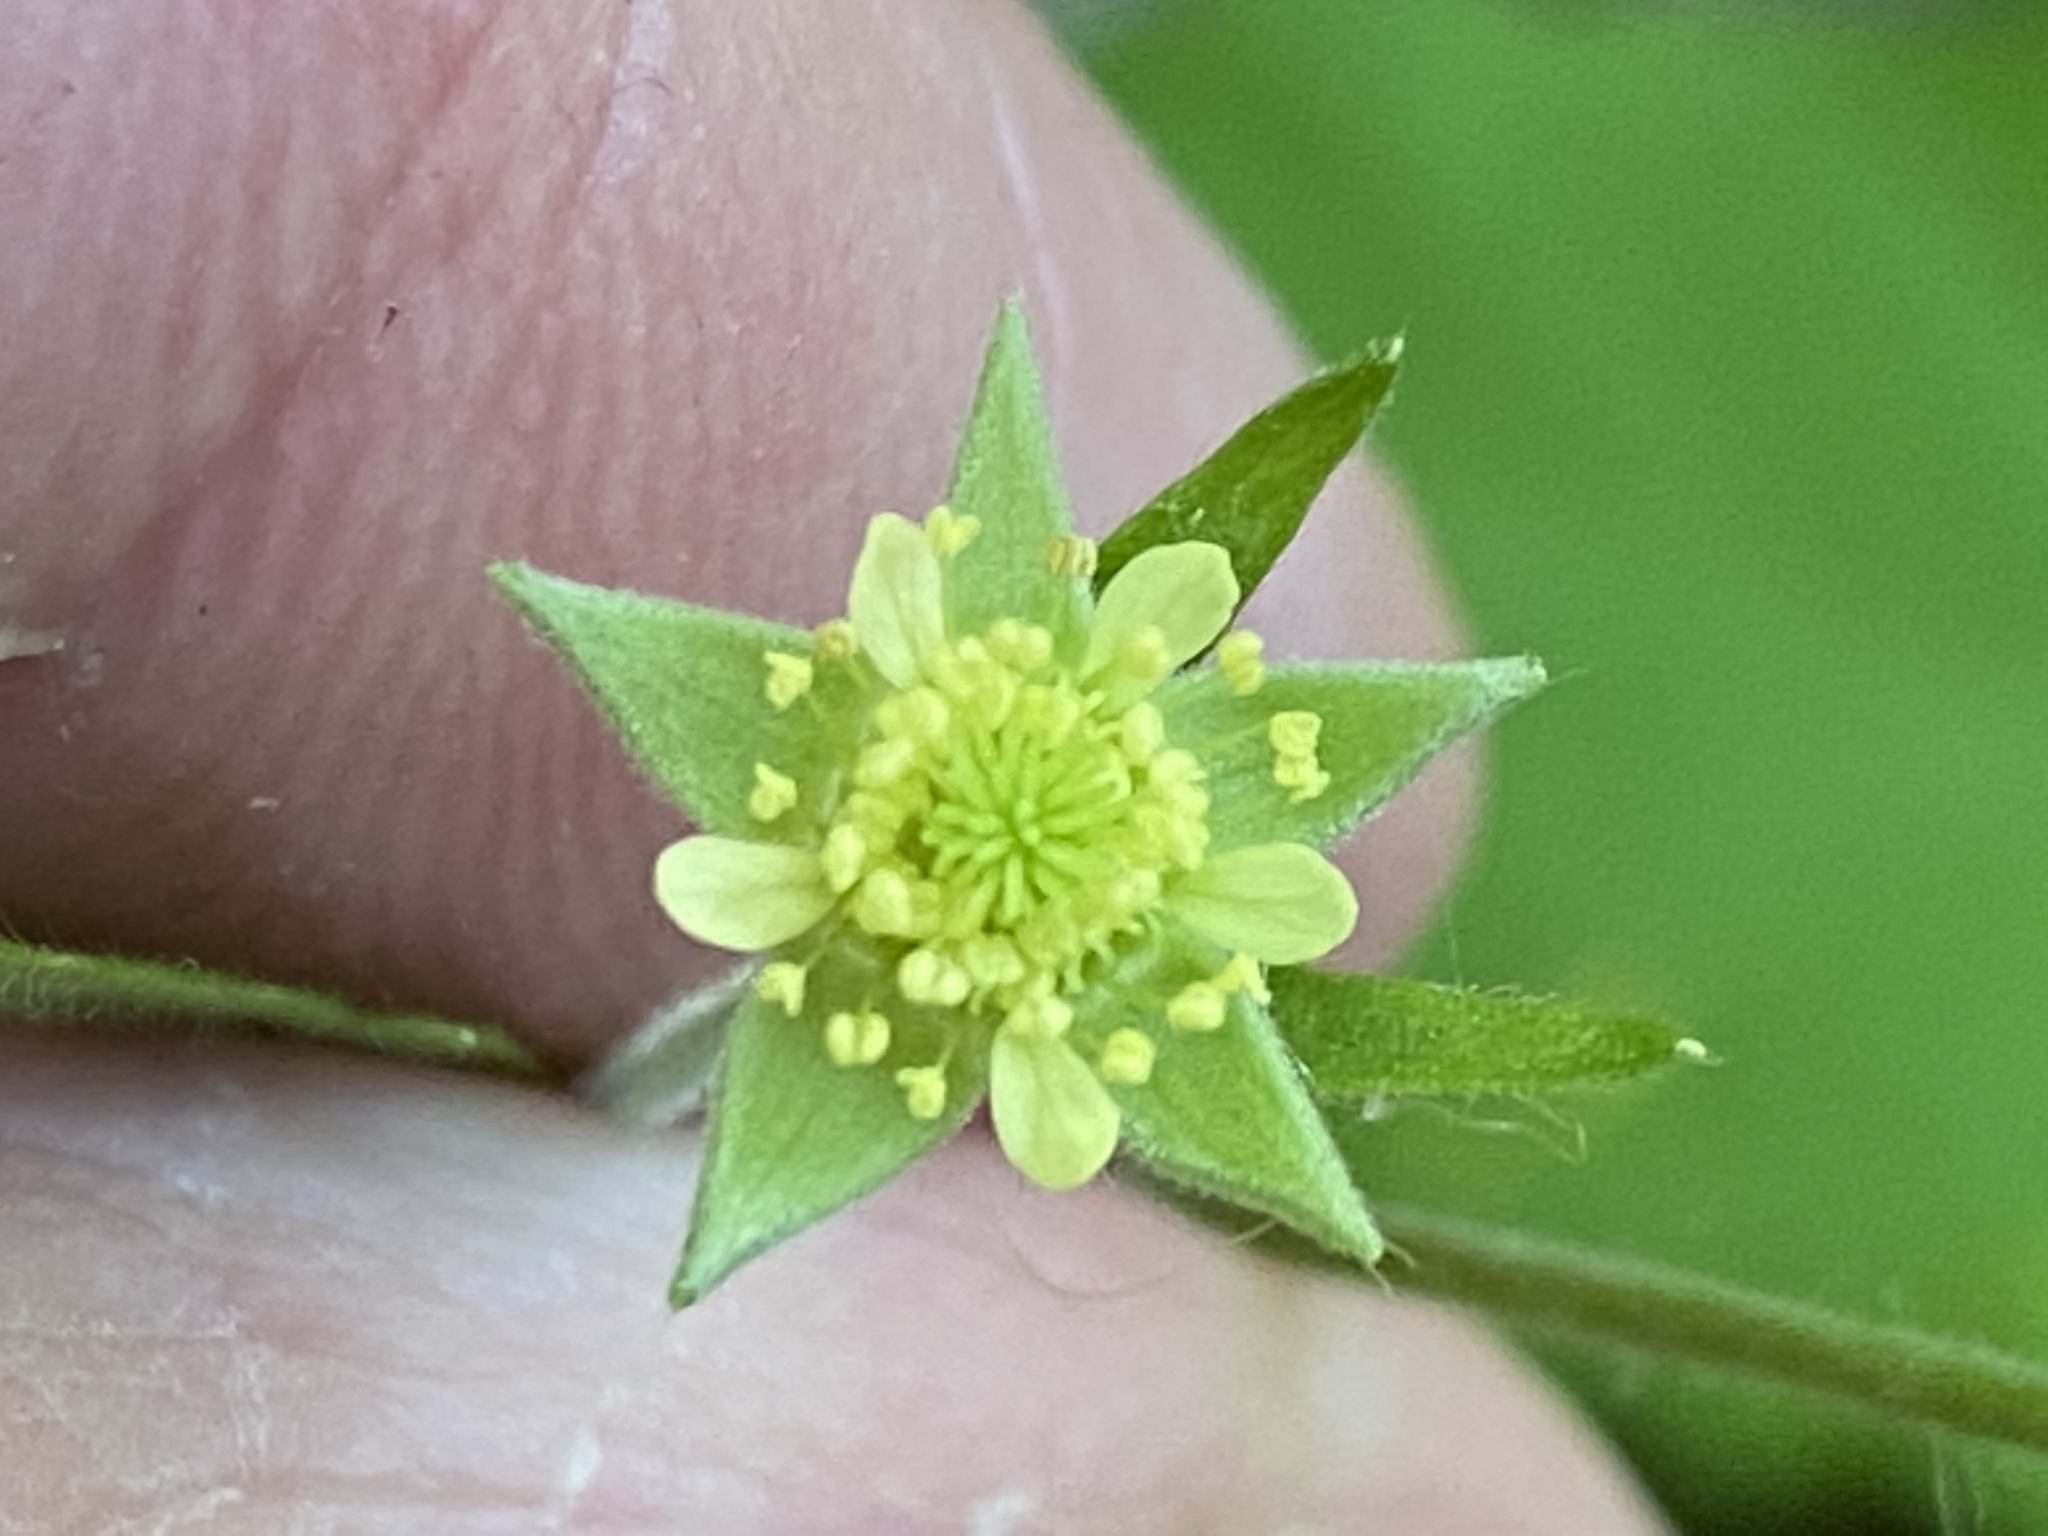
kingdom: Plantae
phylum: Tracheophyta
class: Magnoliopsida
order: Rosales
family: Rosaceae
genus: Geum
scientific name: Geum virginianum
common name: Cream avens
